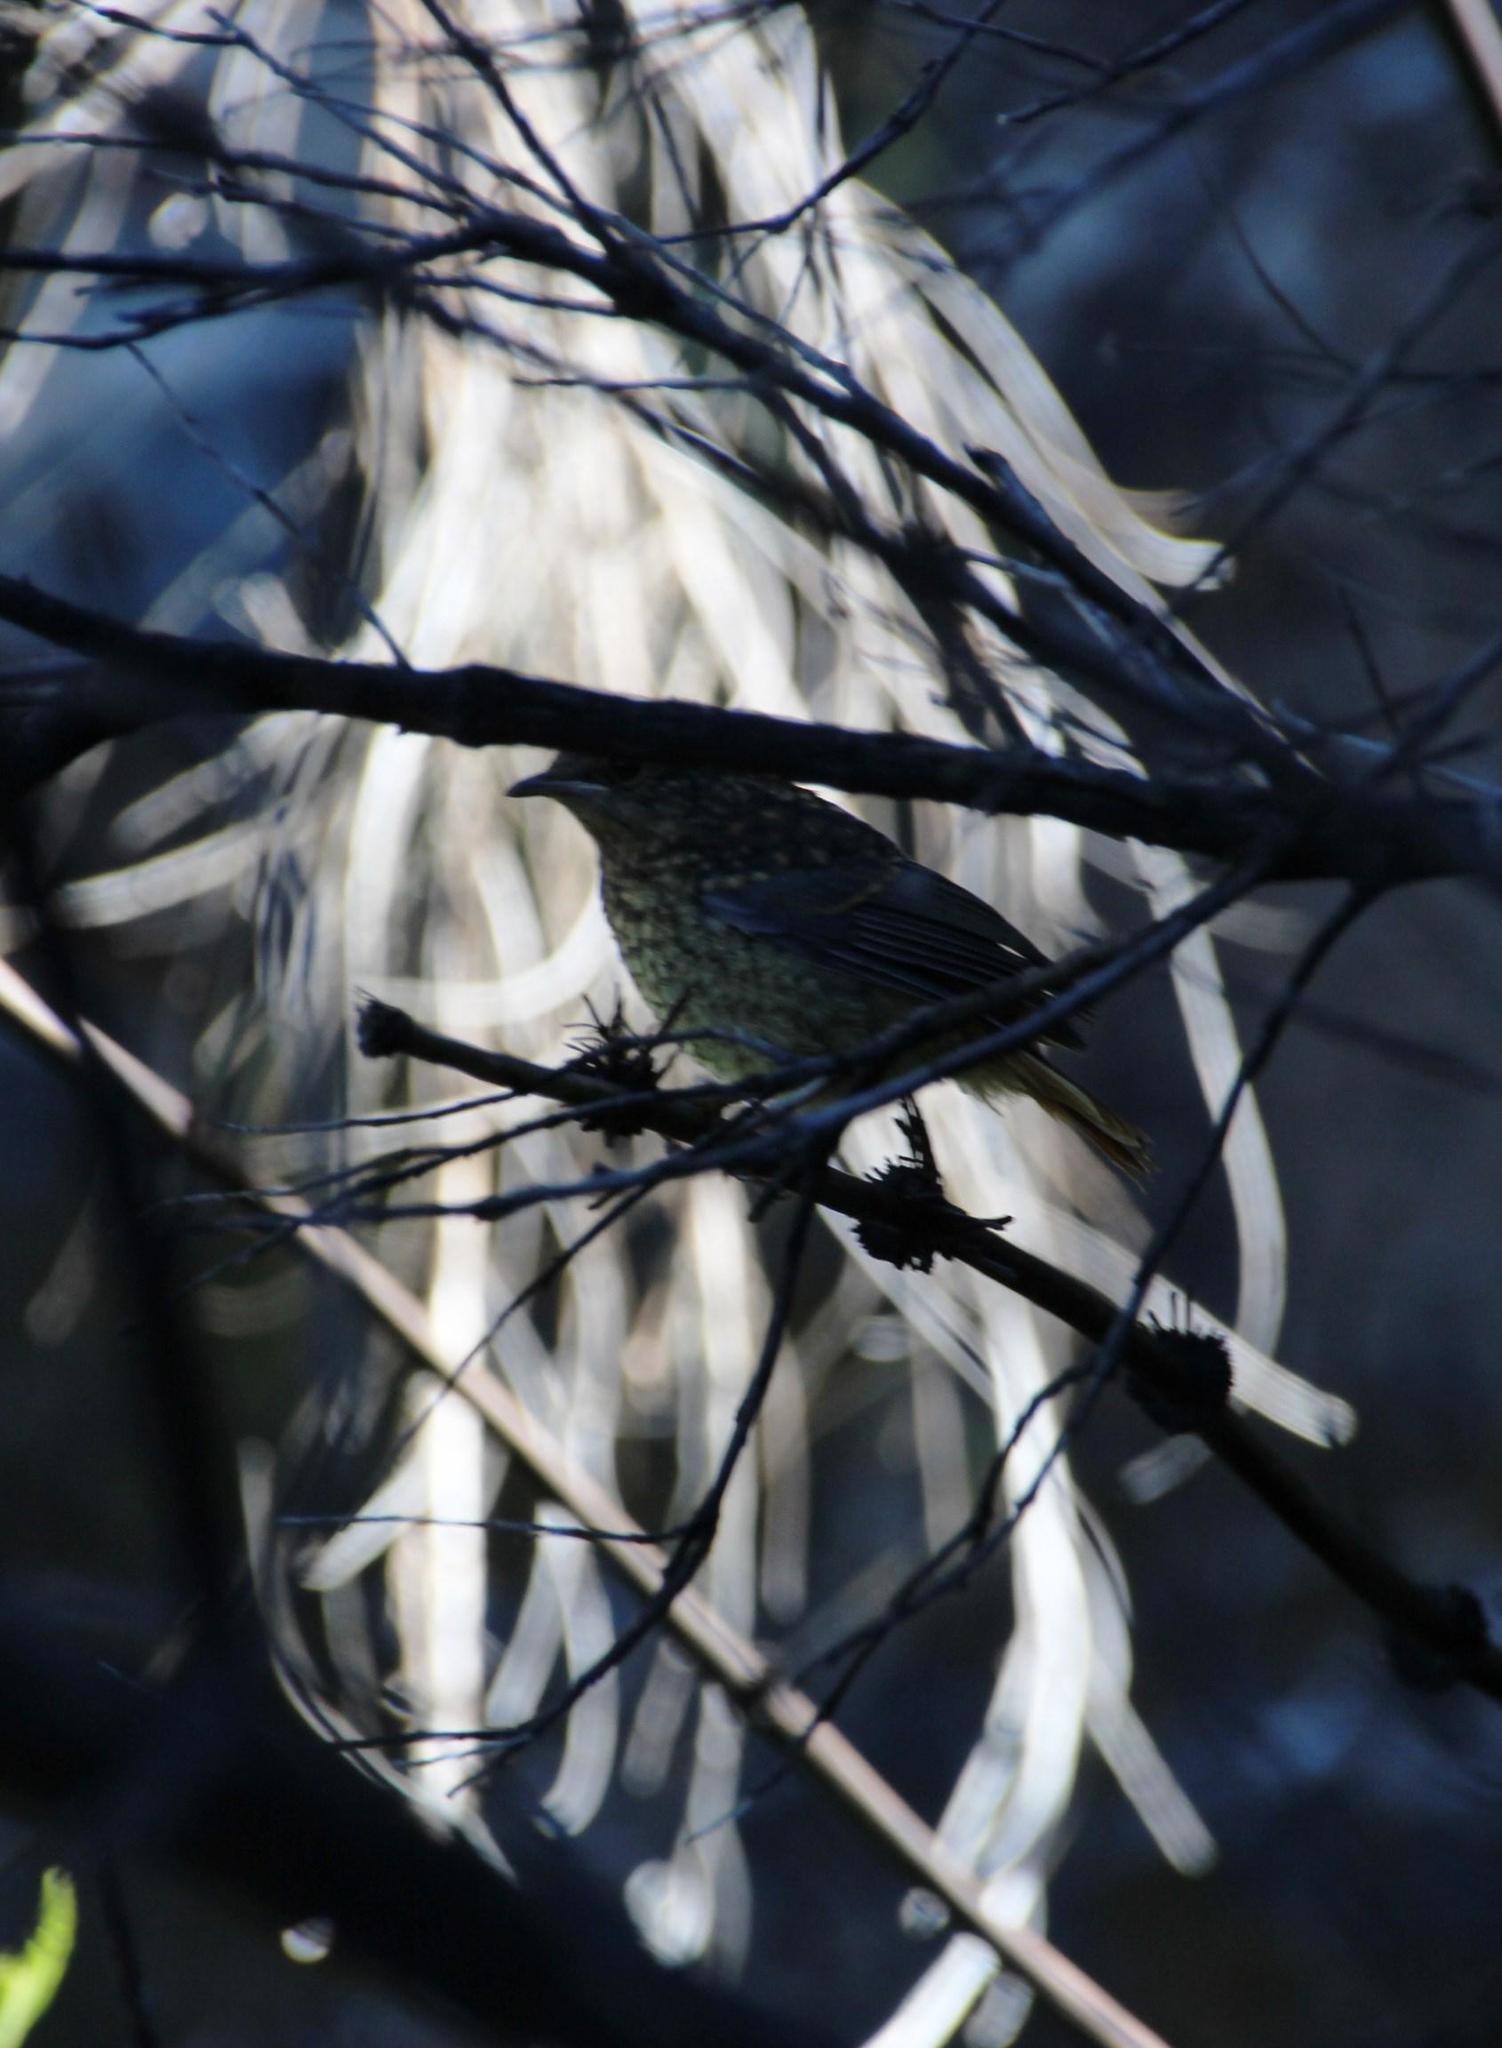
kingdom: Animalia
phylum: Chordata
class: Aves
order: Passeriformes
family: Muscicapidae
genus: Cossypha
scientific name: Cossypha caffra
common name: Cape robin-chat
